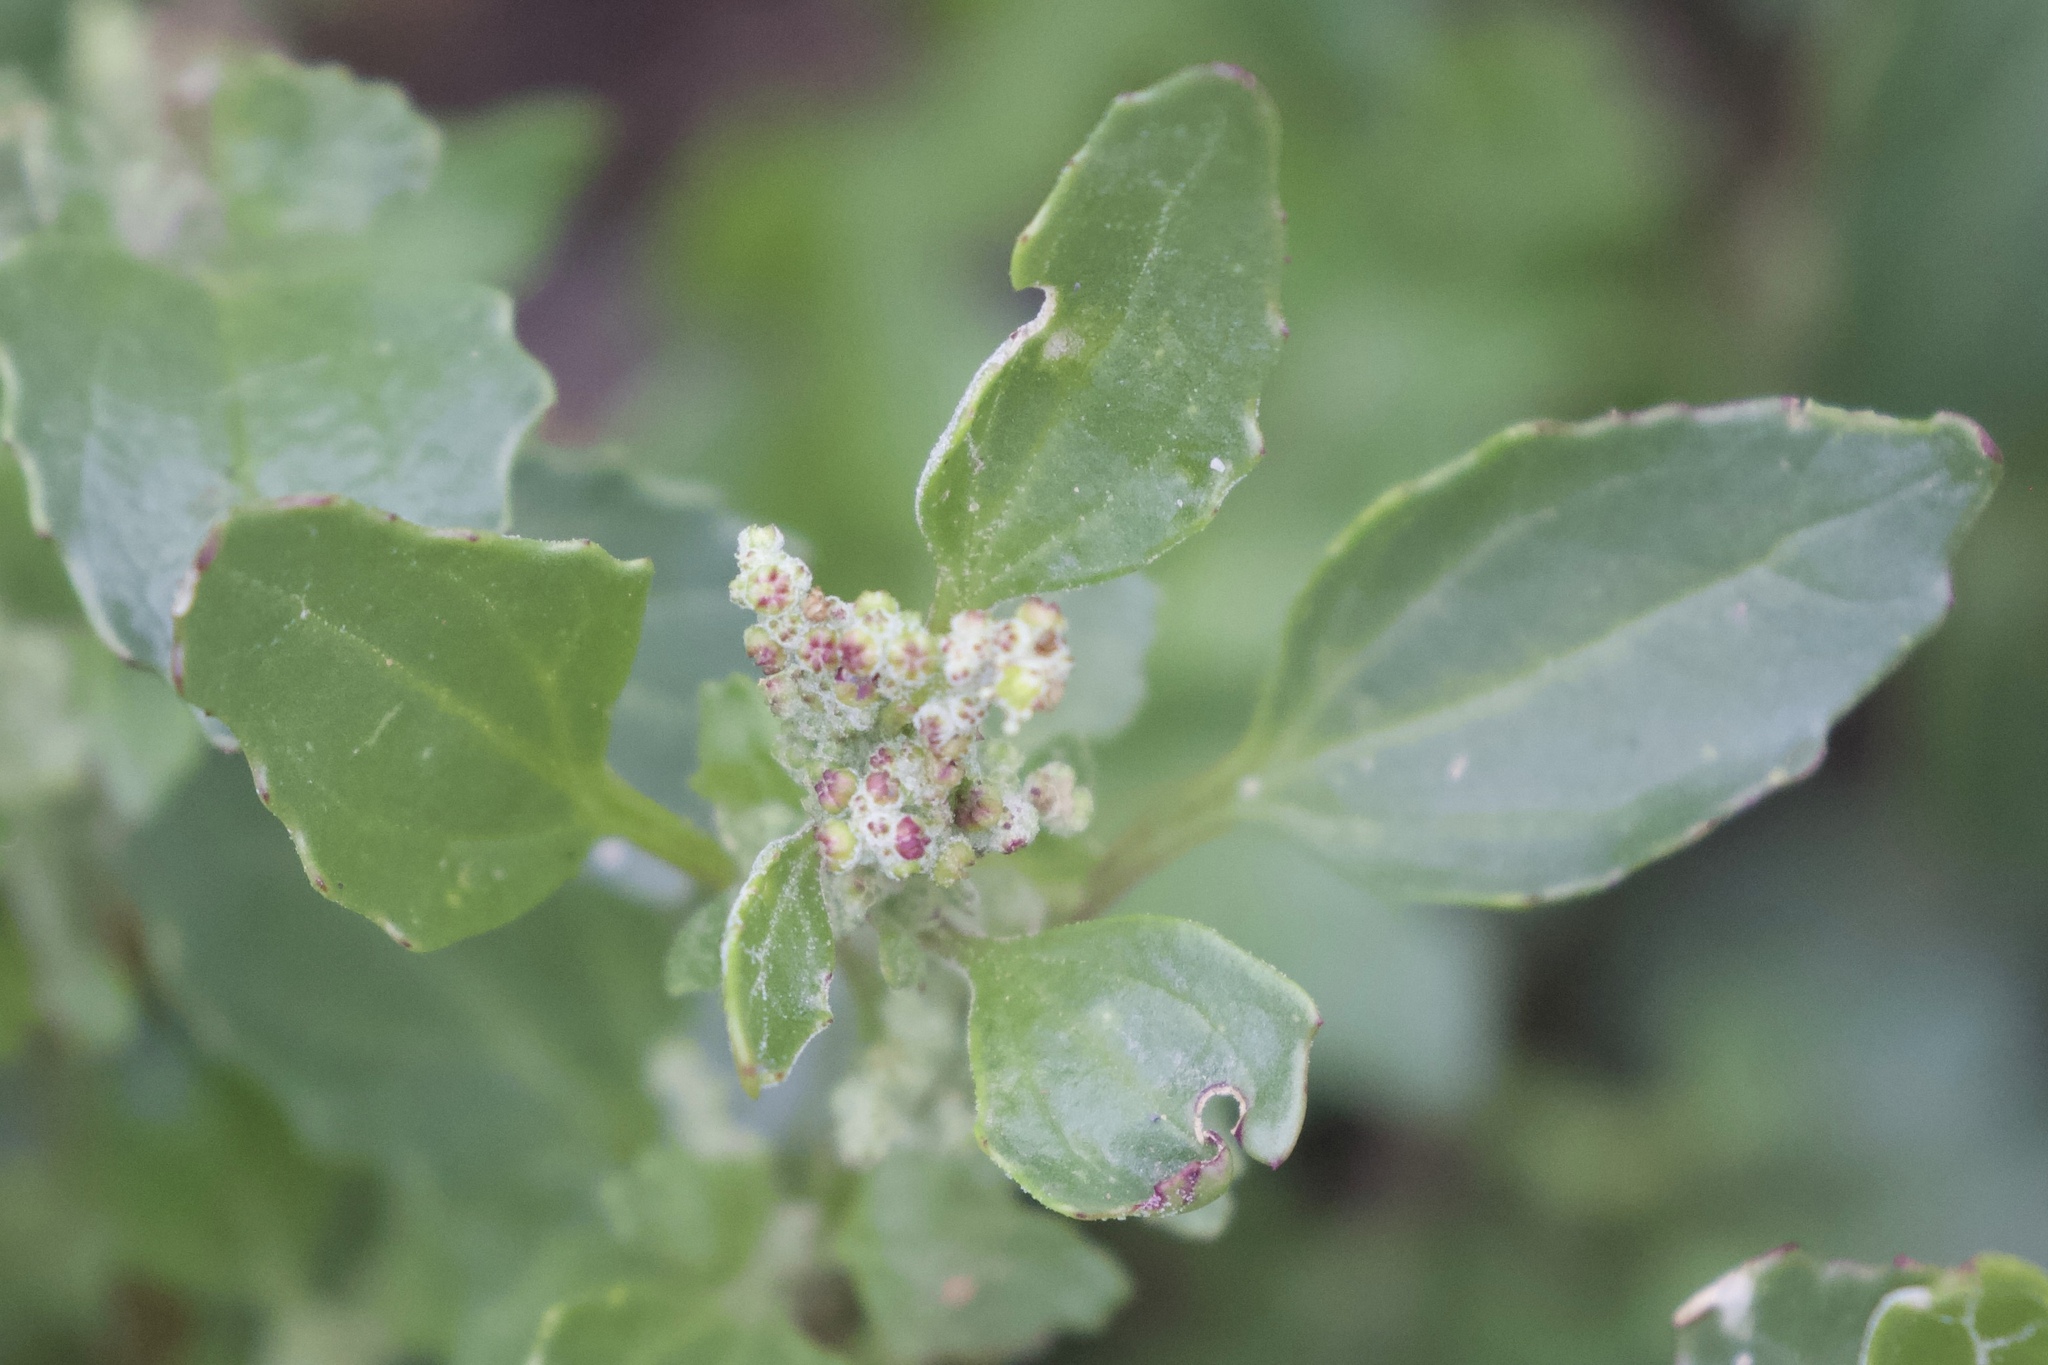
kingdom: Plantae
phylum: Tracheophyta
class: Magnoliopsida
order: Caryophyllales
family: Amaranthaceae
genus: Chenopodiastrum
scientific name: Chenopodiastrum murale
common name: Sowbane
